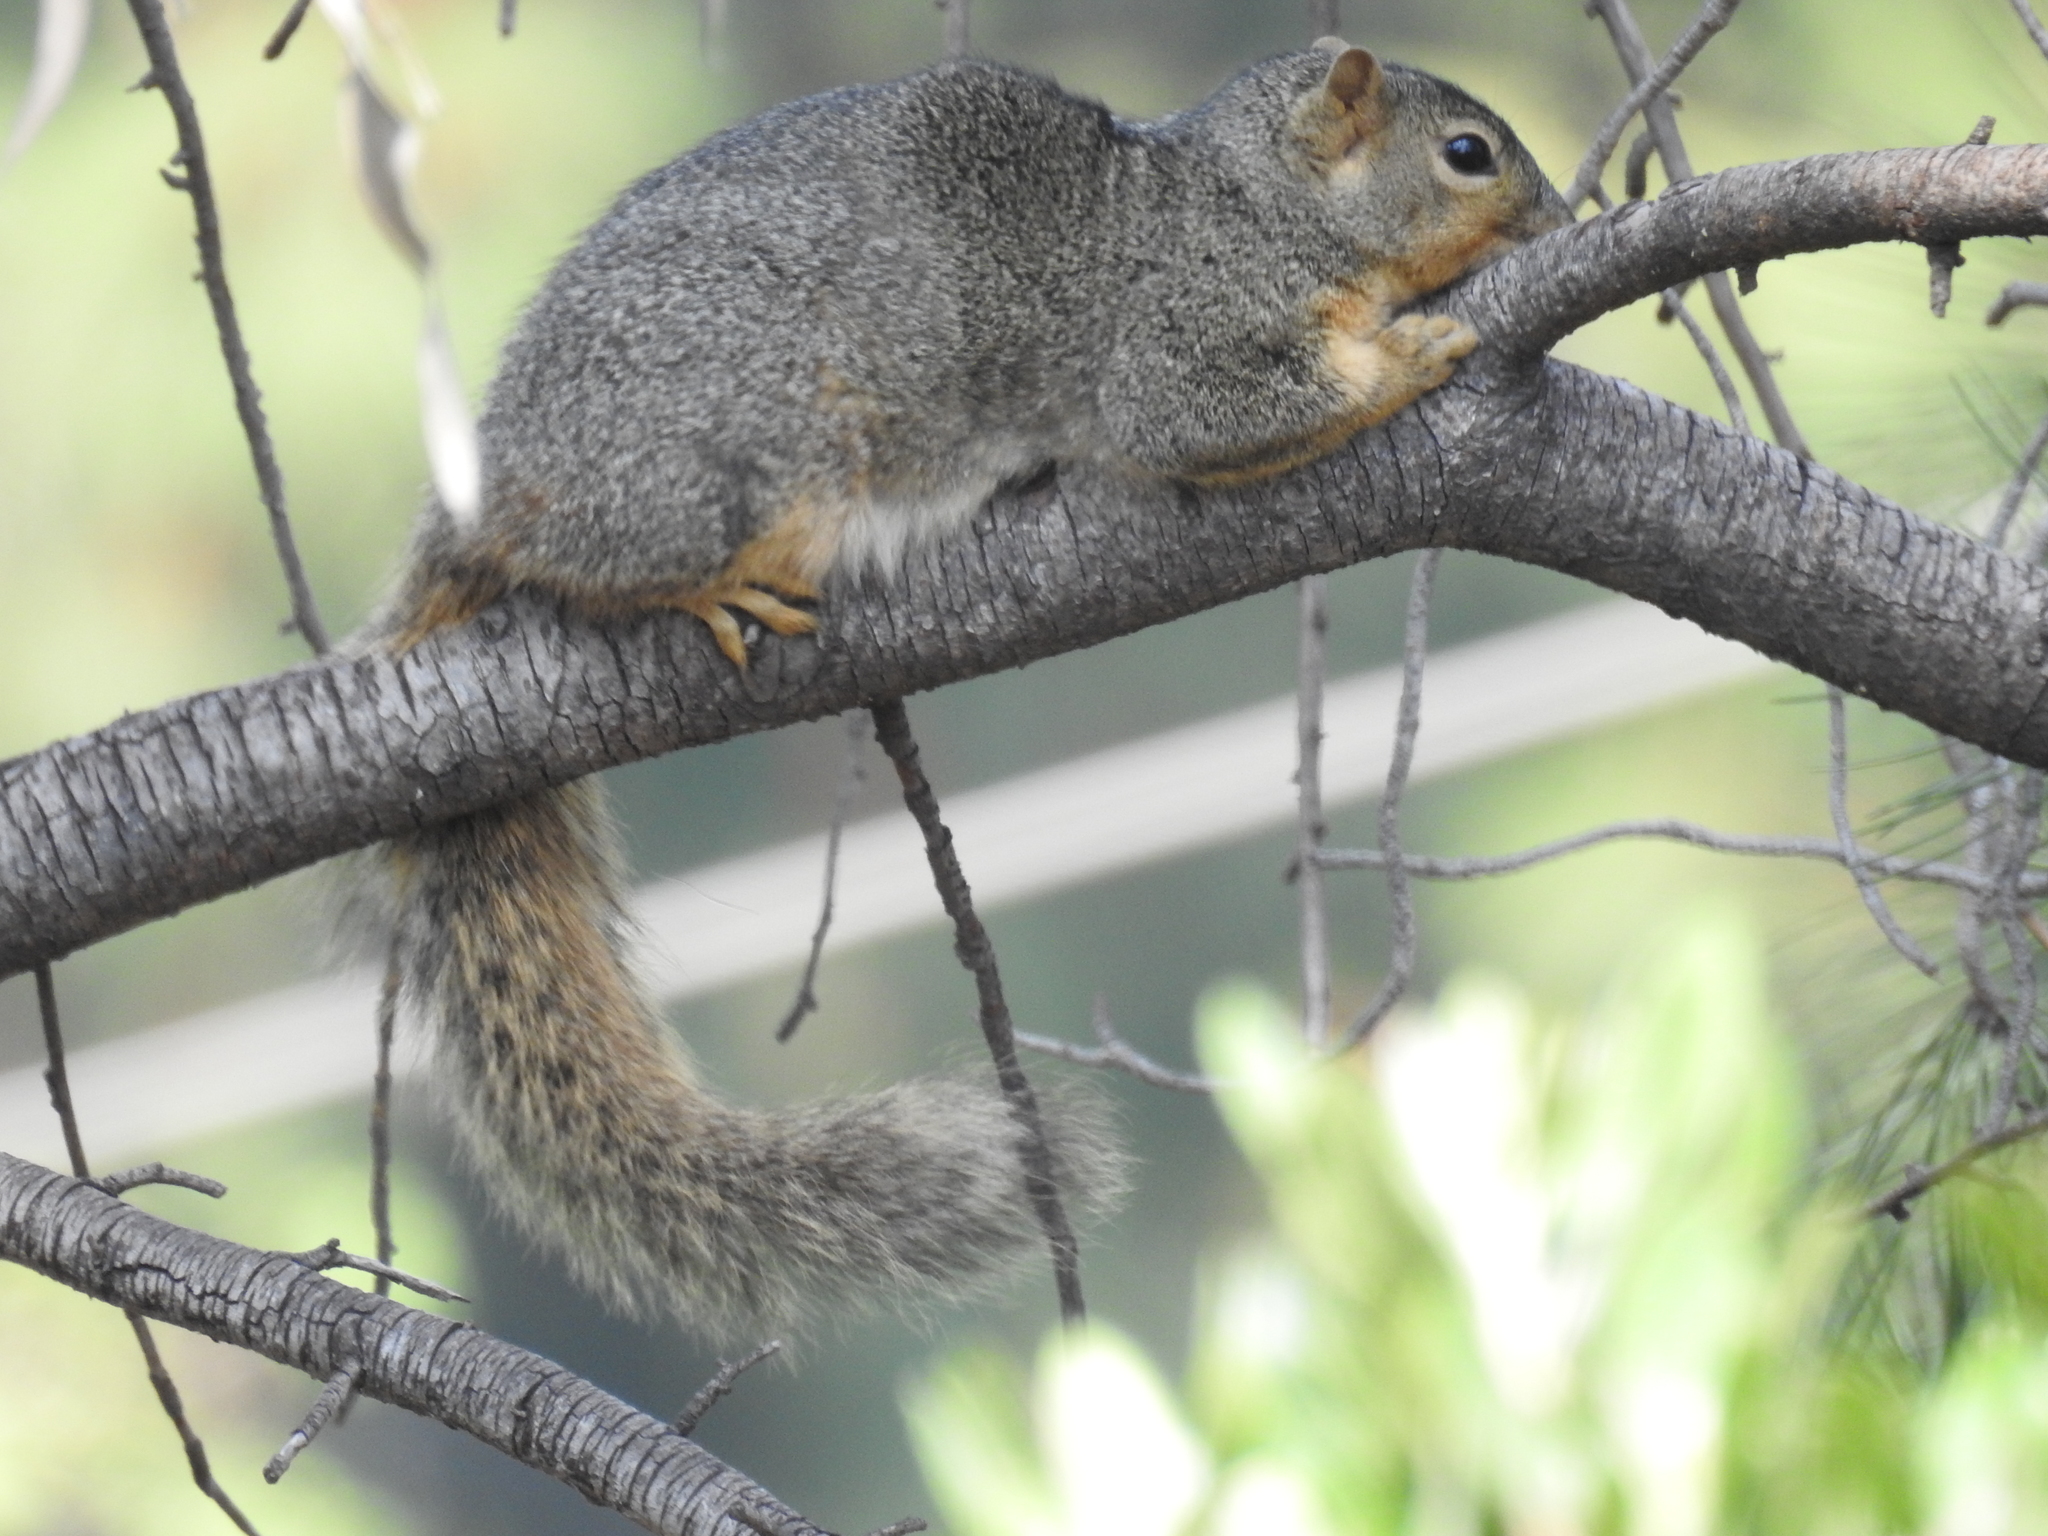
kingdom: Animalia
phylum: Chordata
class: Mammalia
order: Rodentia
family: Sciuridae
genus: Sciurus
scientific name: Sciurus niger
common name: Fox squirrel
